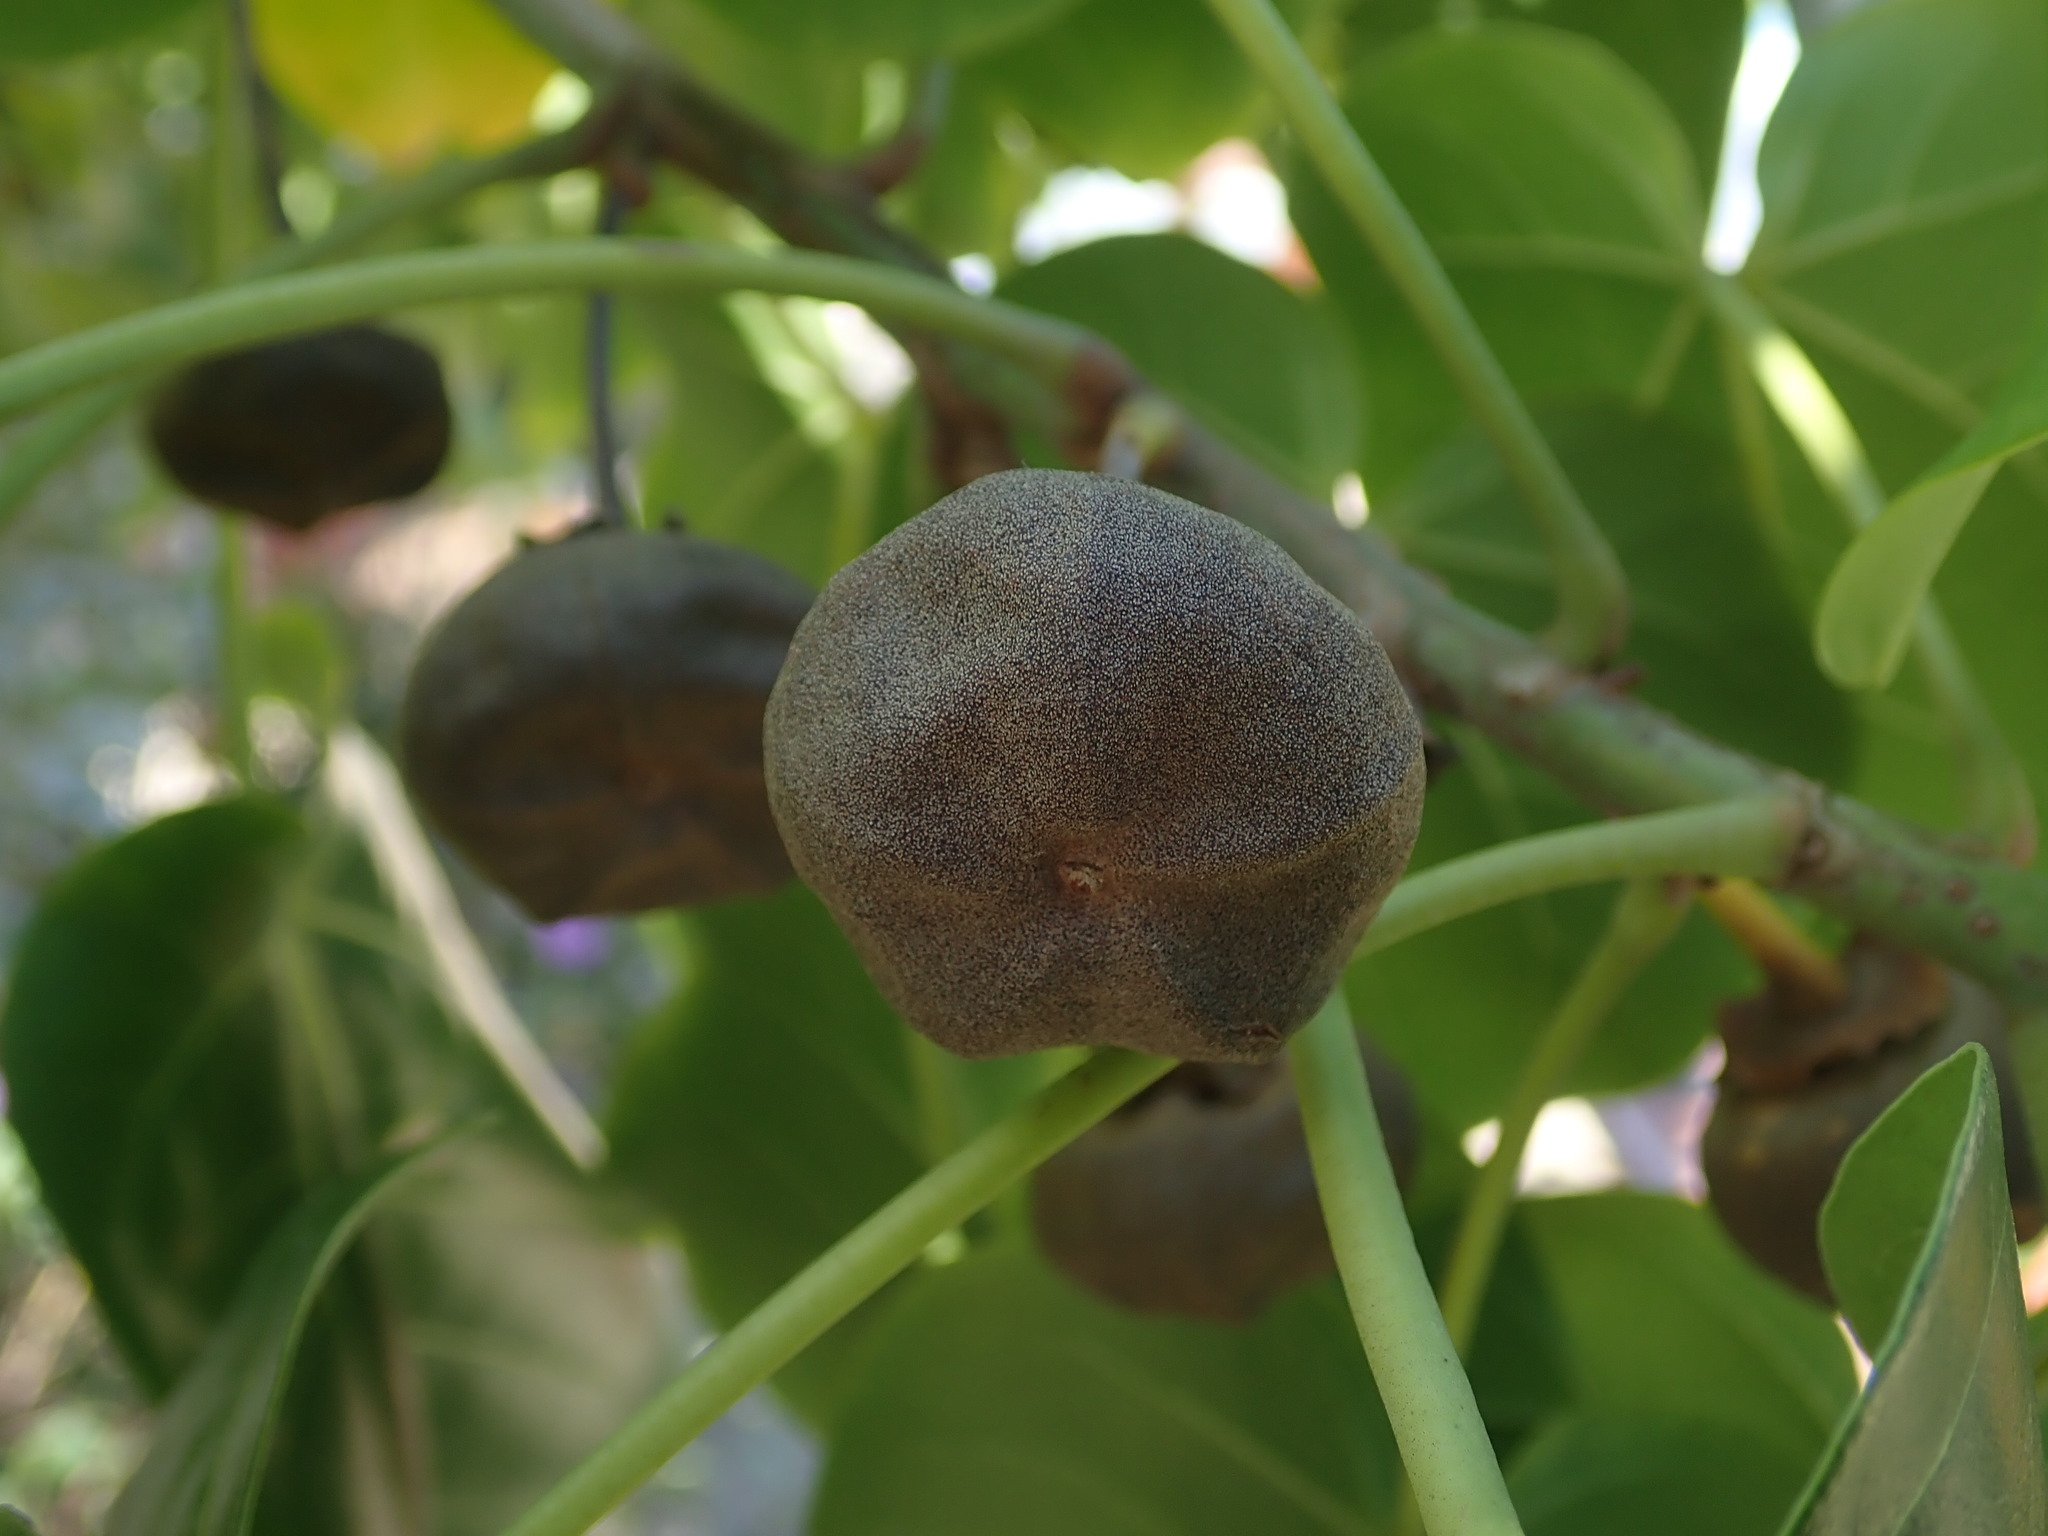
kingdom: Plantae
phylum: Tracheophyta
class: Magnoliopsida
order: Malvales
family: Malvaceae
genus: Thespesia
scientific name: Thespesia populnea
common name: Seaside mahoe
